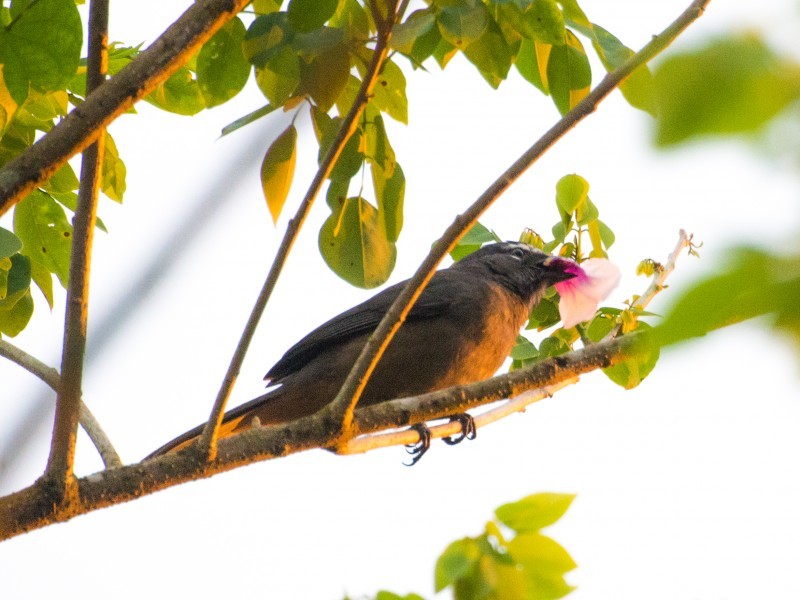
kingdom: Animalia
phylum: Chordata
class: Aves
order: Passeriformes
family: Thraupidae
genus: Saltator
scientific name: Saltator grandis
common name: Cinnamon-bellied saltator
